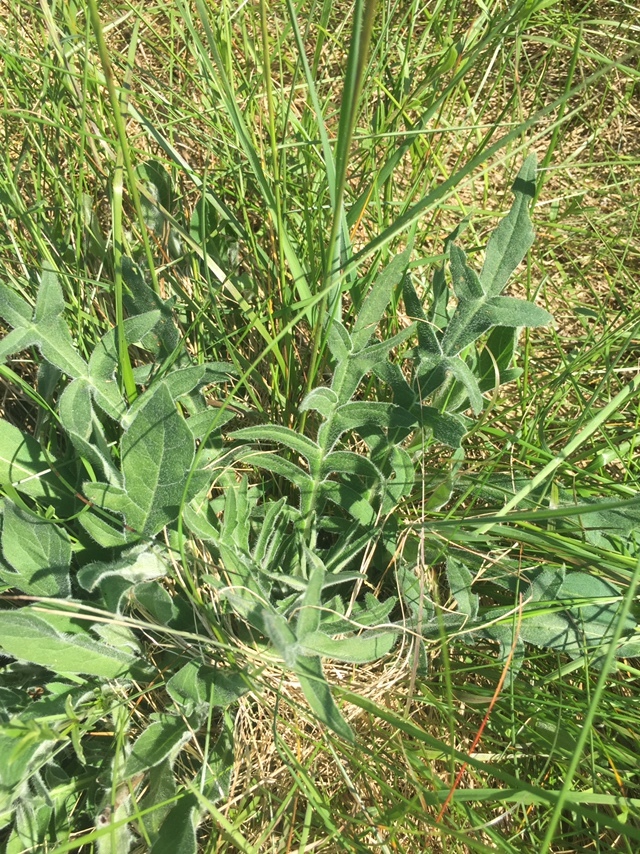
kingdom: Plantae
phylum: Tracheophyta
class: Magnoliopsida
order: Dipsacales
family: Caprifoliaceae
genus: Knautia
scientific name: Knautia arvensis
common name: Field scabiosa
